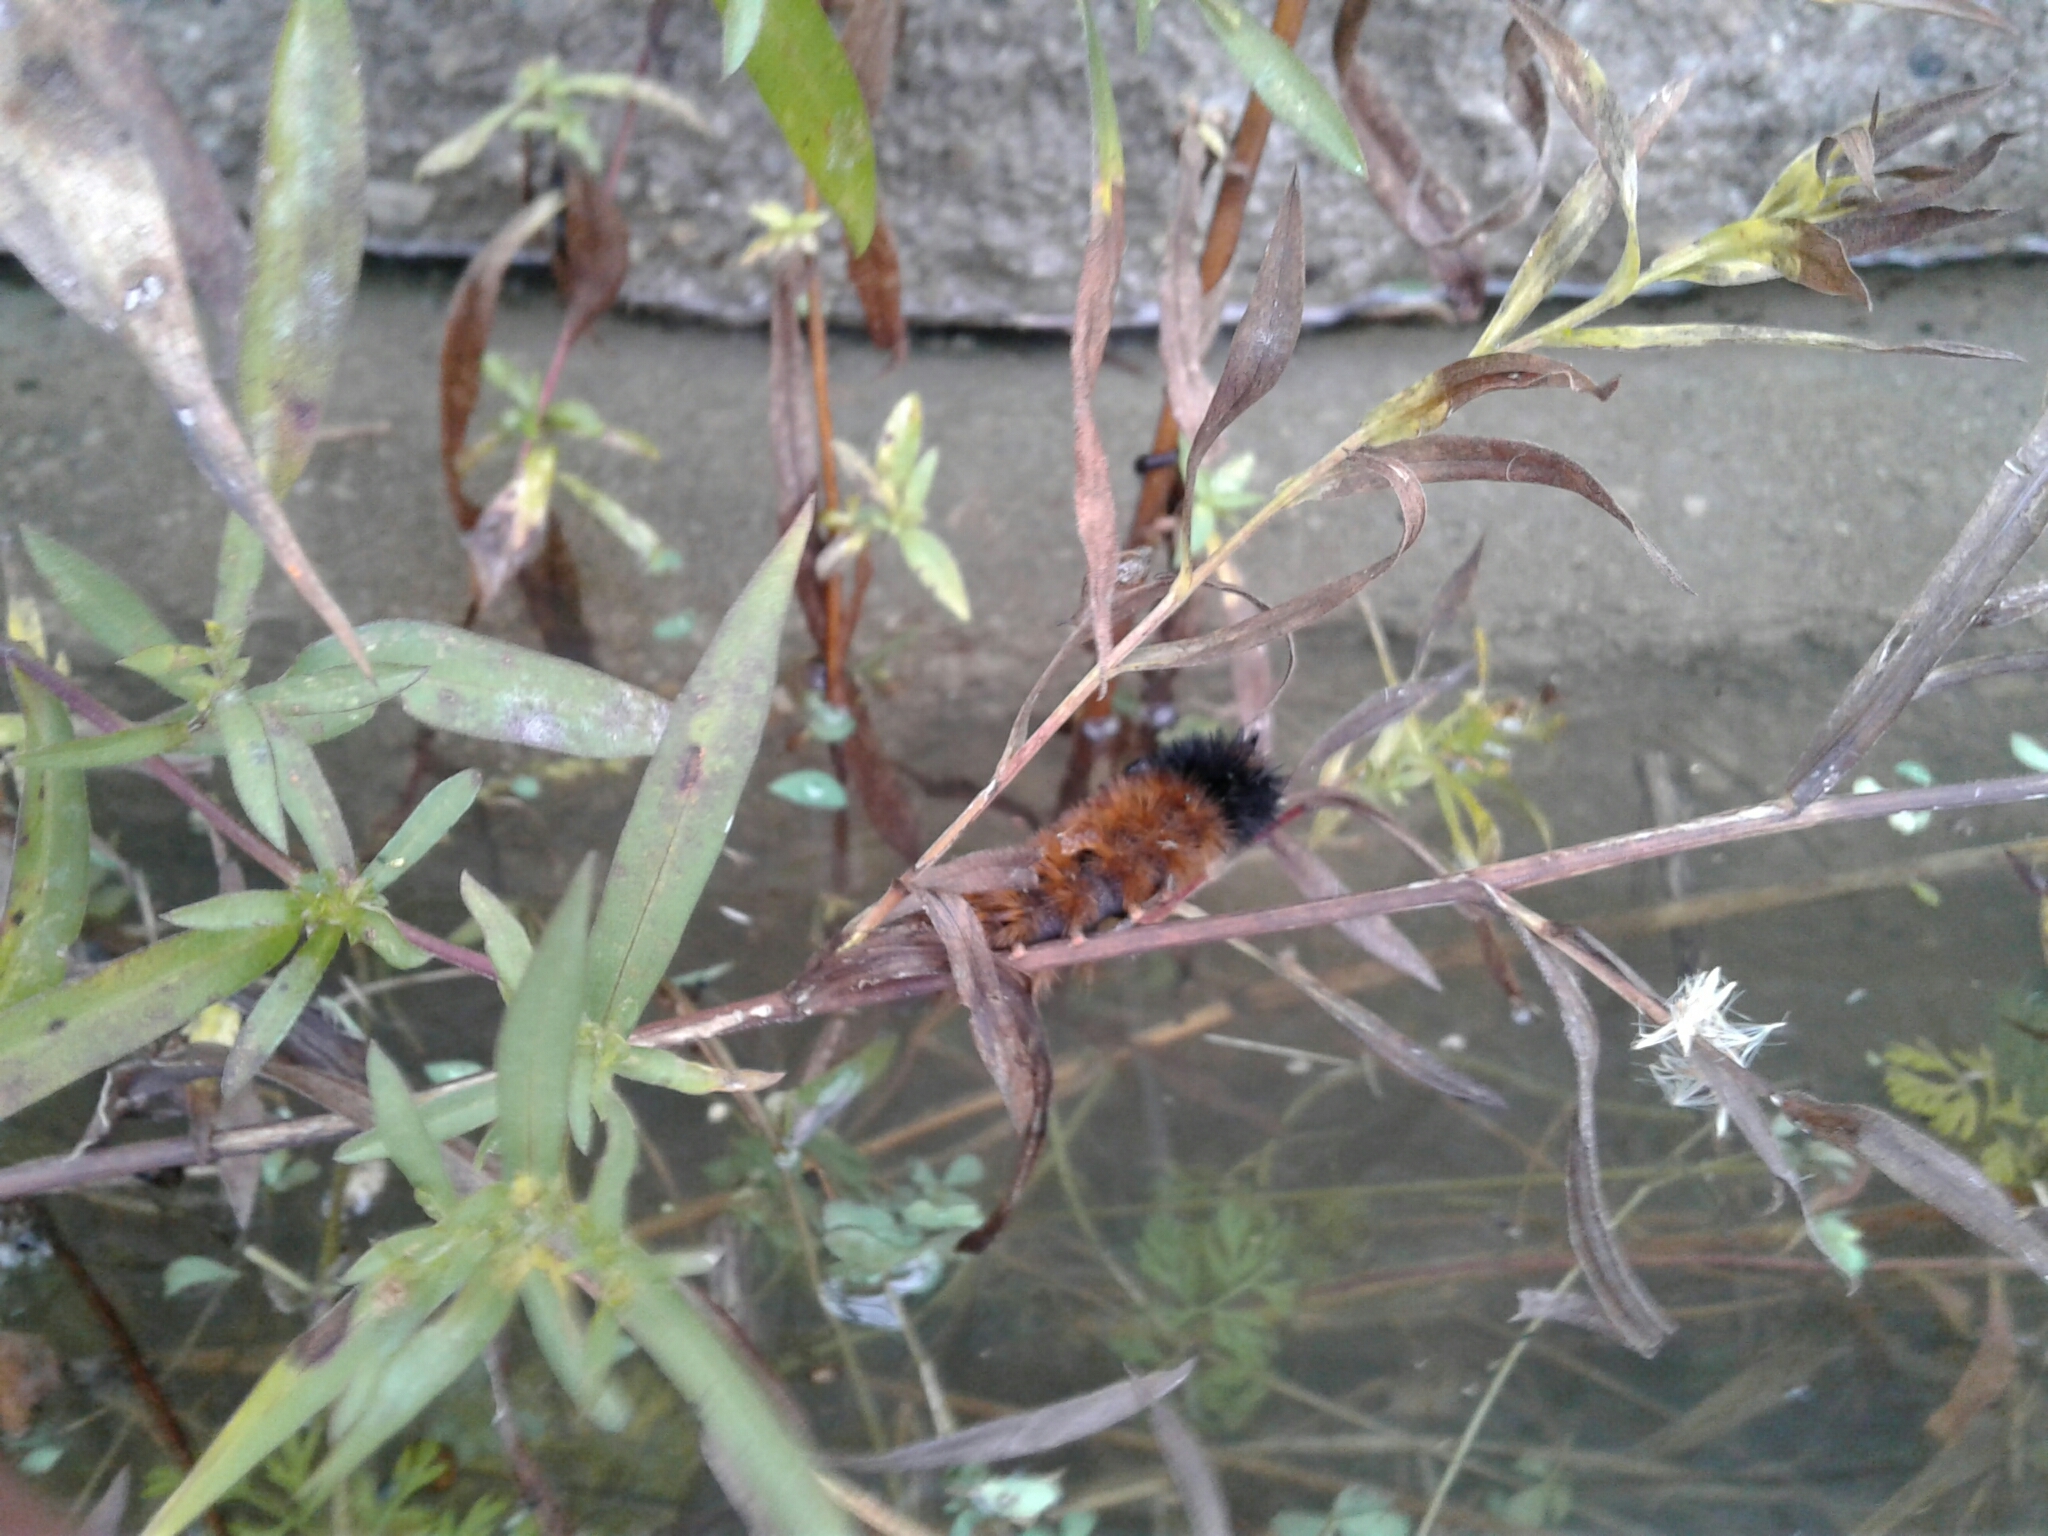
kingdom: Animalia
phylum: Arthropoda
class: Insecta
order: Lepidoptera
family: Erebidae
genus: Pyrrharctia
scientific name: Pyrrharctia isabella
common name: Isabella tiger moth
